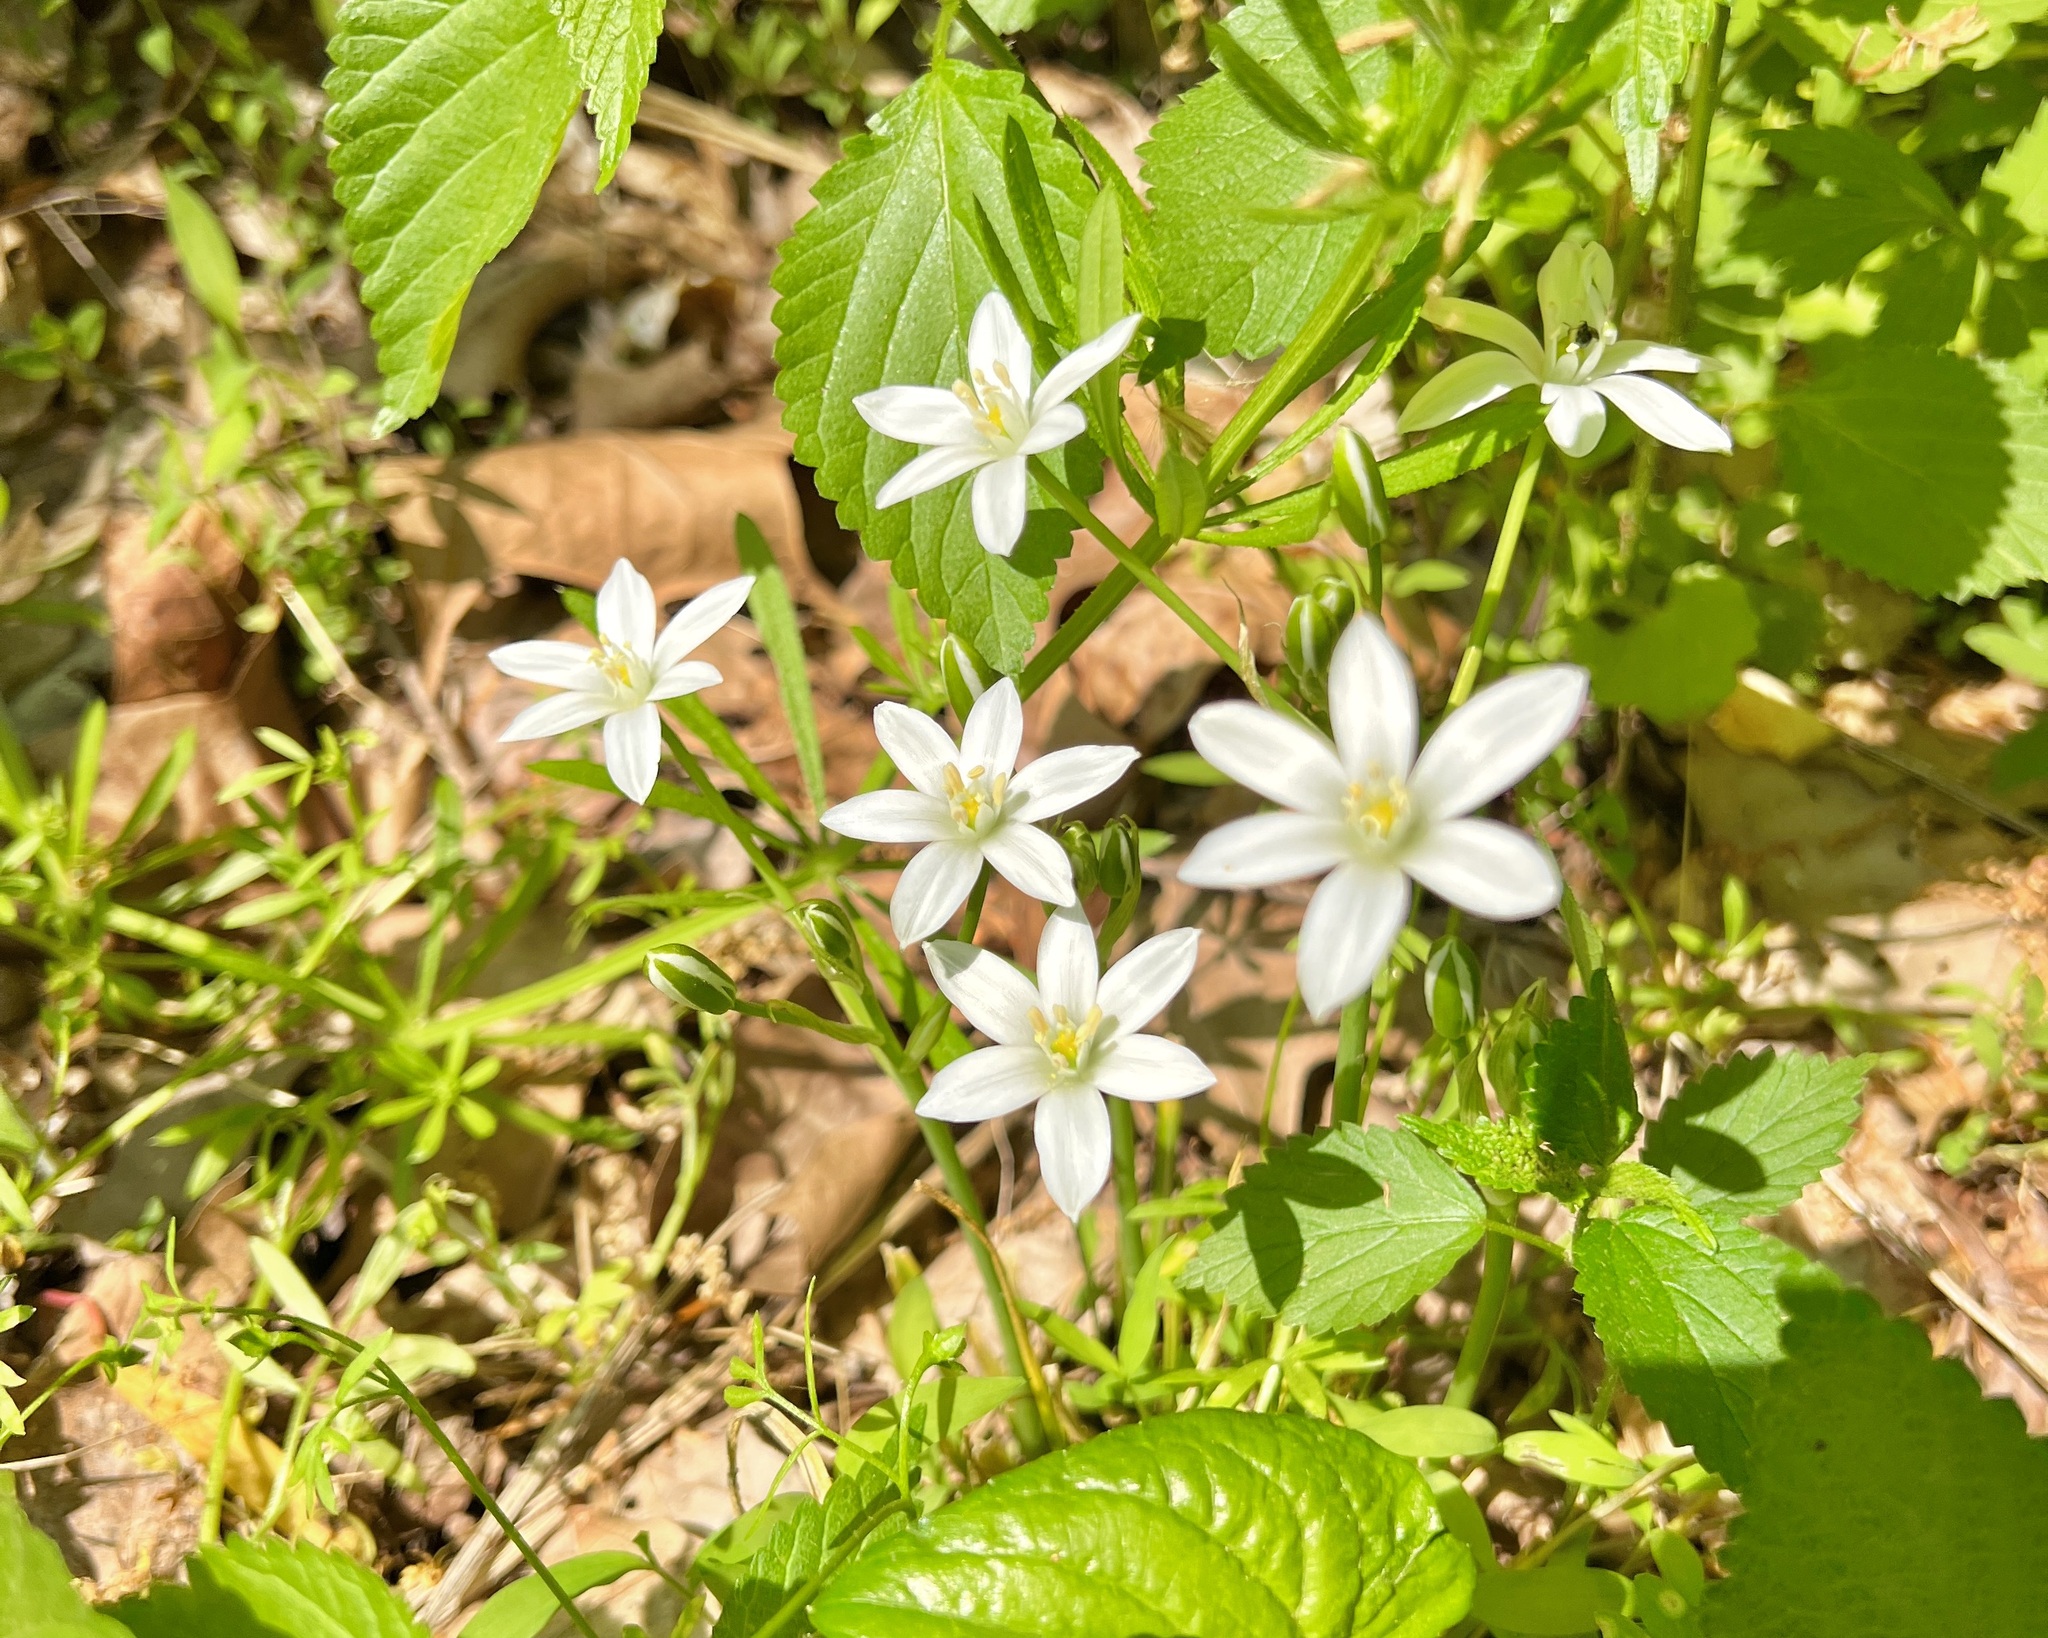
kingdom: Plantae
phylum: Tracheophyta
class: Liliopsida
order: Asparagales
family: Asparagaceae
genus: Ornithogalum
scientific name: Ornithogalum umbellatum
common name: Garden star-of-bethlehem
